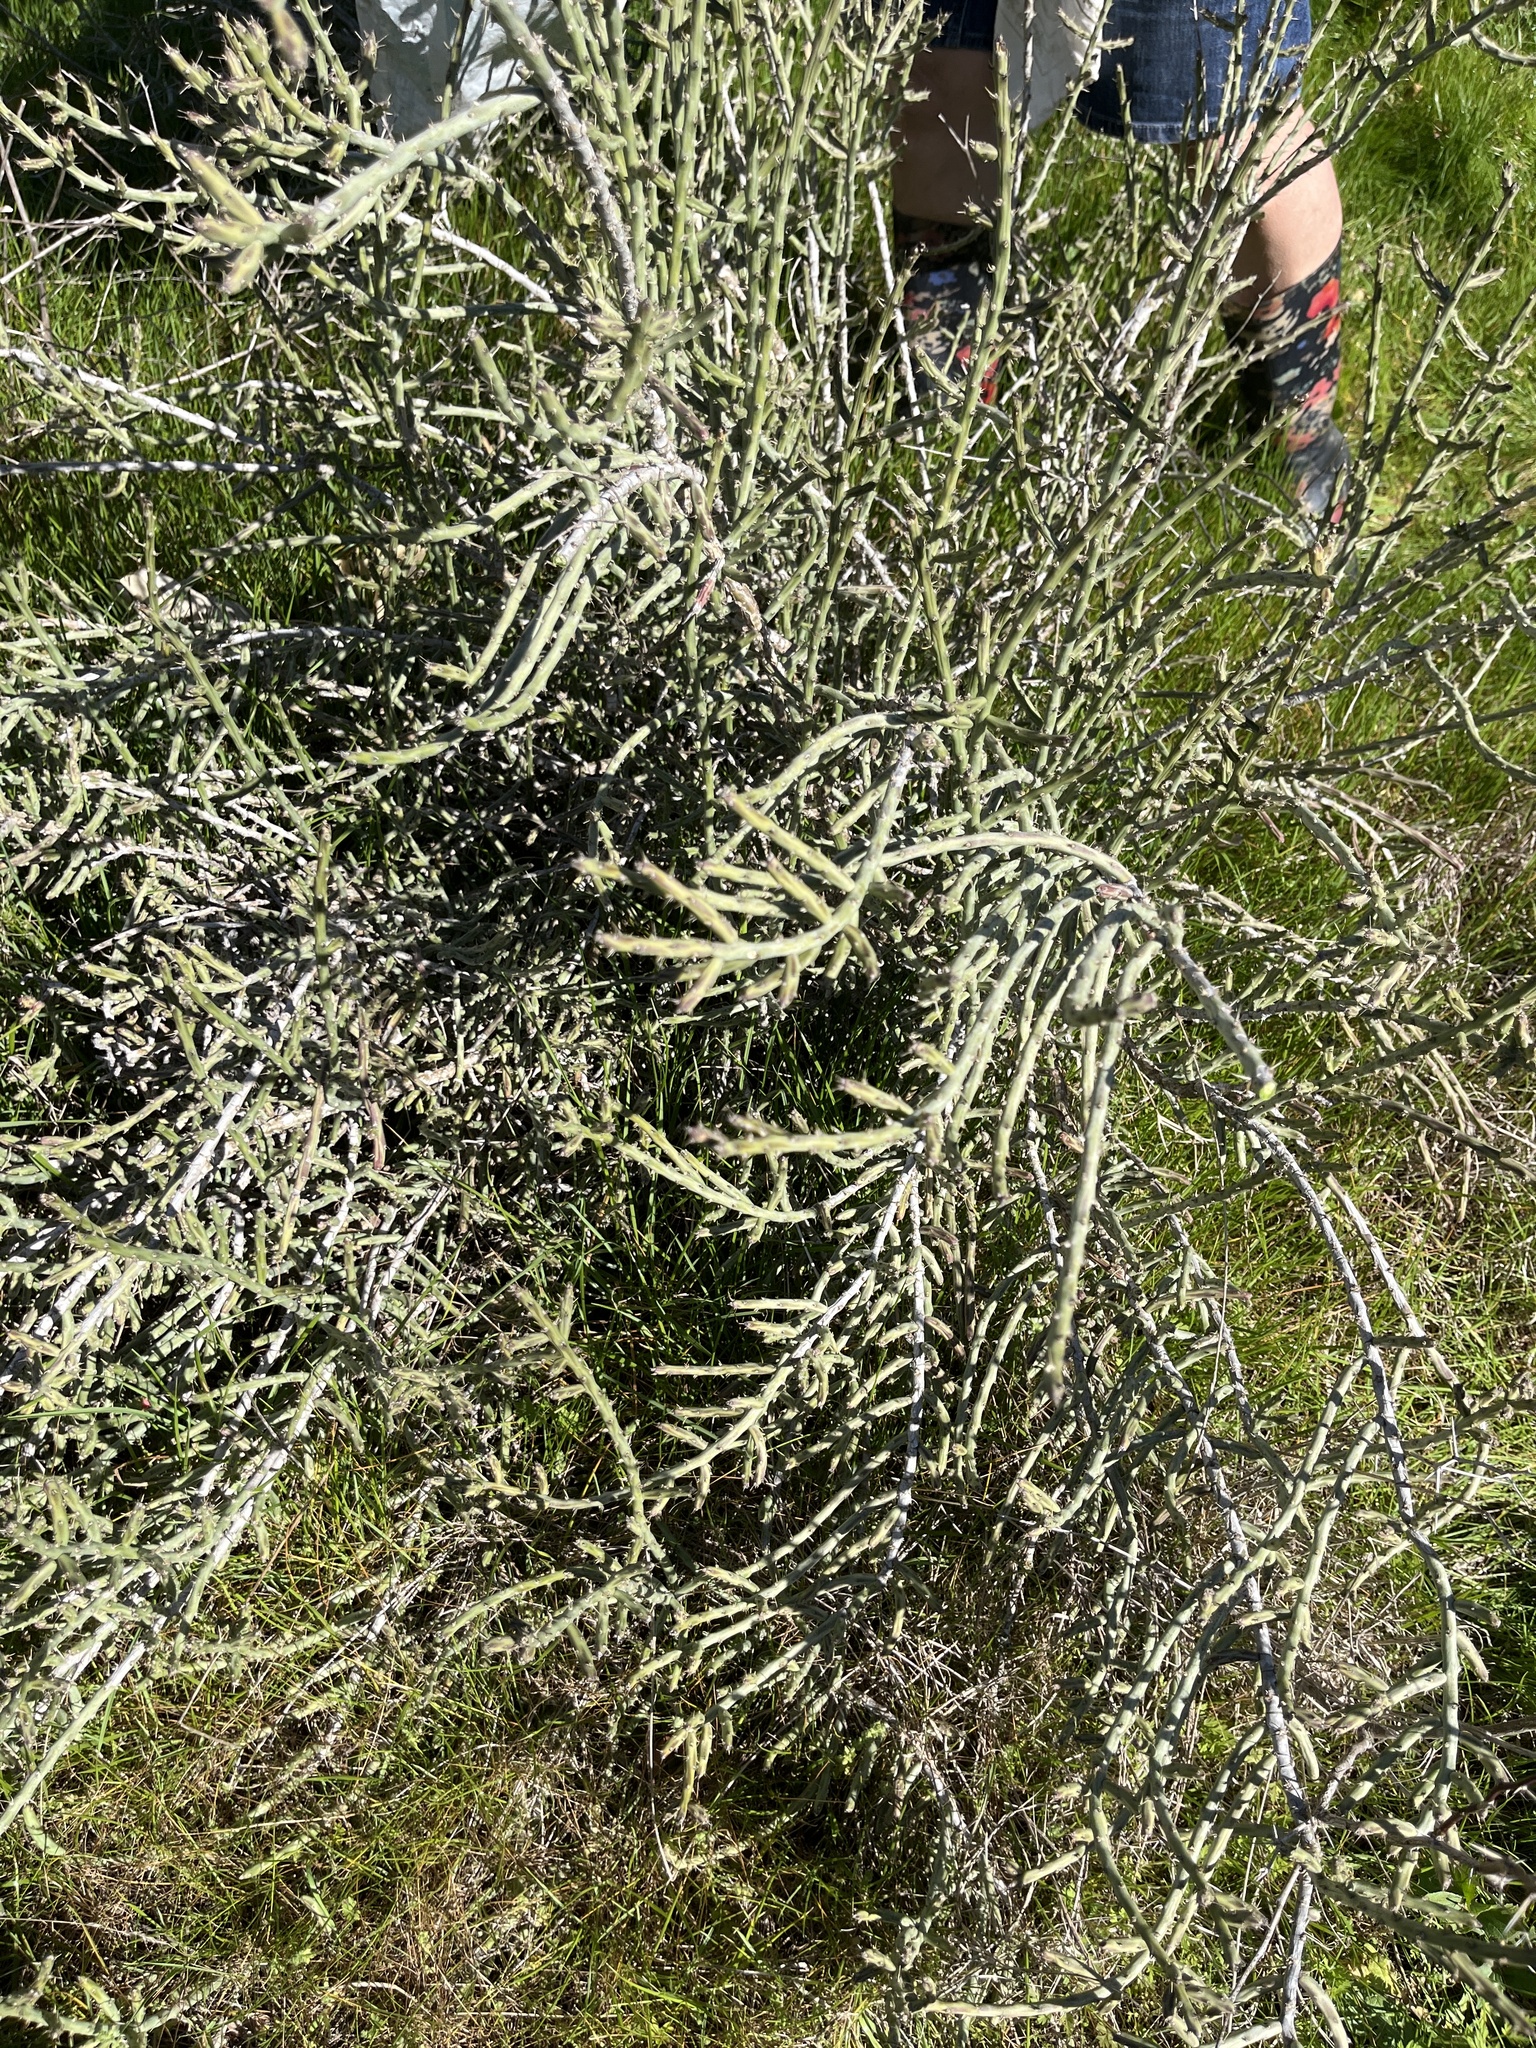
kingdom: Plantae
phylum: Tracheophyta
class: Magnoliopsida
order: Caryophyllales
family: Cactaceae
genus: Cylindropuntia
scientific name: Cylindropuntia leptocaulis
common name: Christmas cactus
